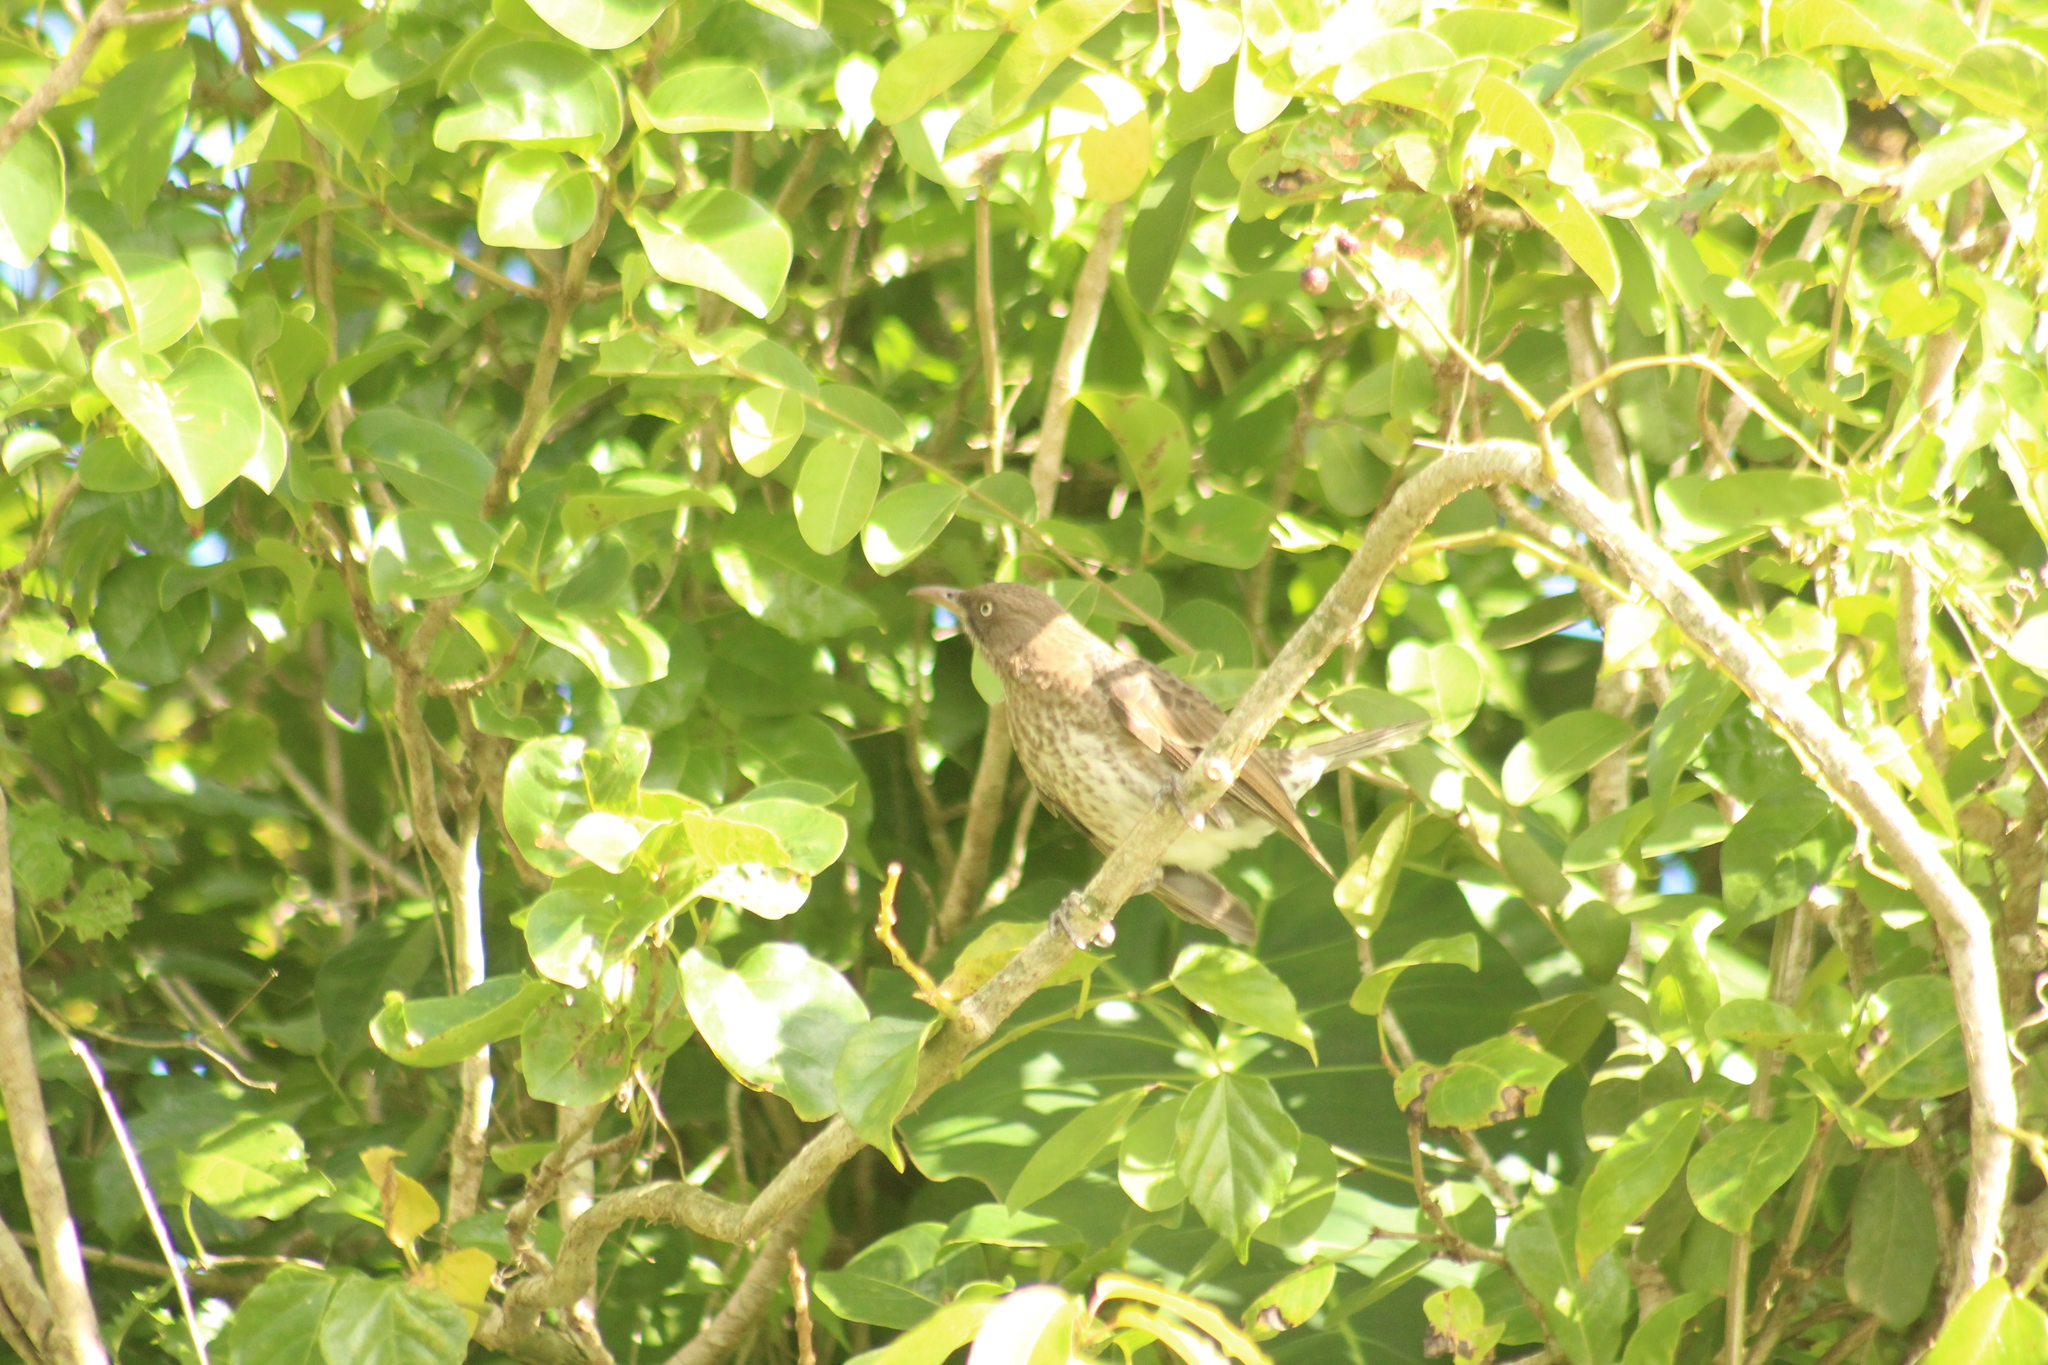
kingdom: Animalia
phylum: Chordata
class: Aves
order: Passeriformes
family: Mimidae
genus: Margarops
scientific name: Margarops fuscatus
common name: Pearly-eyed thrasher
